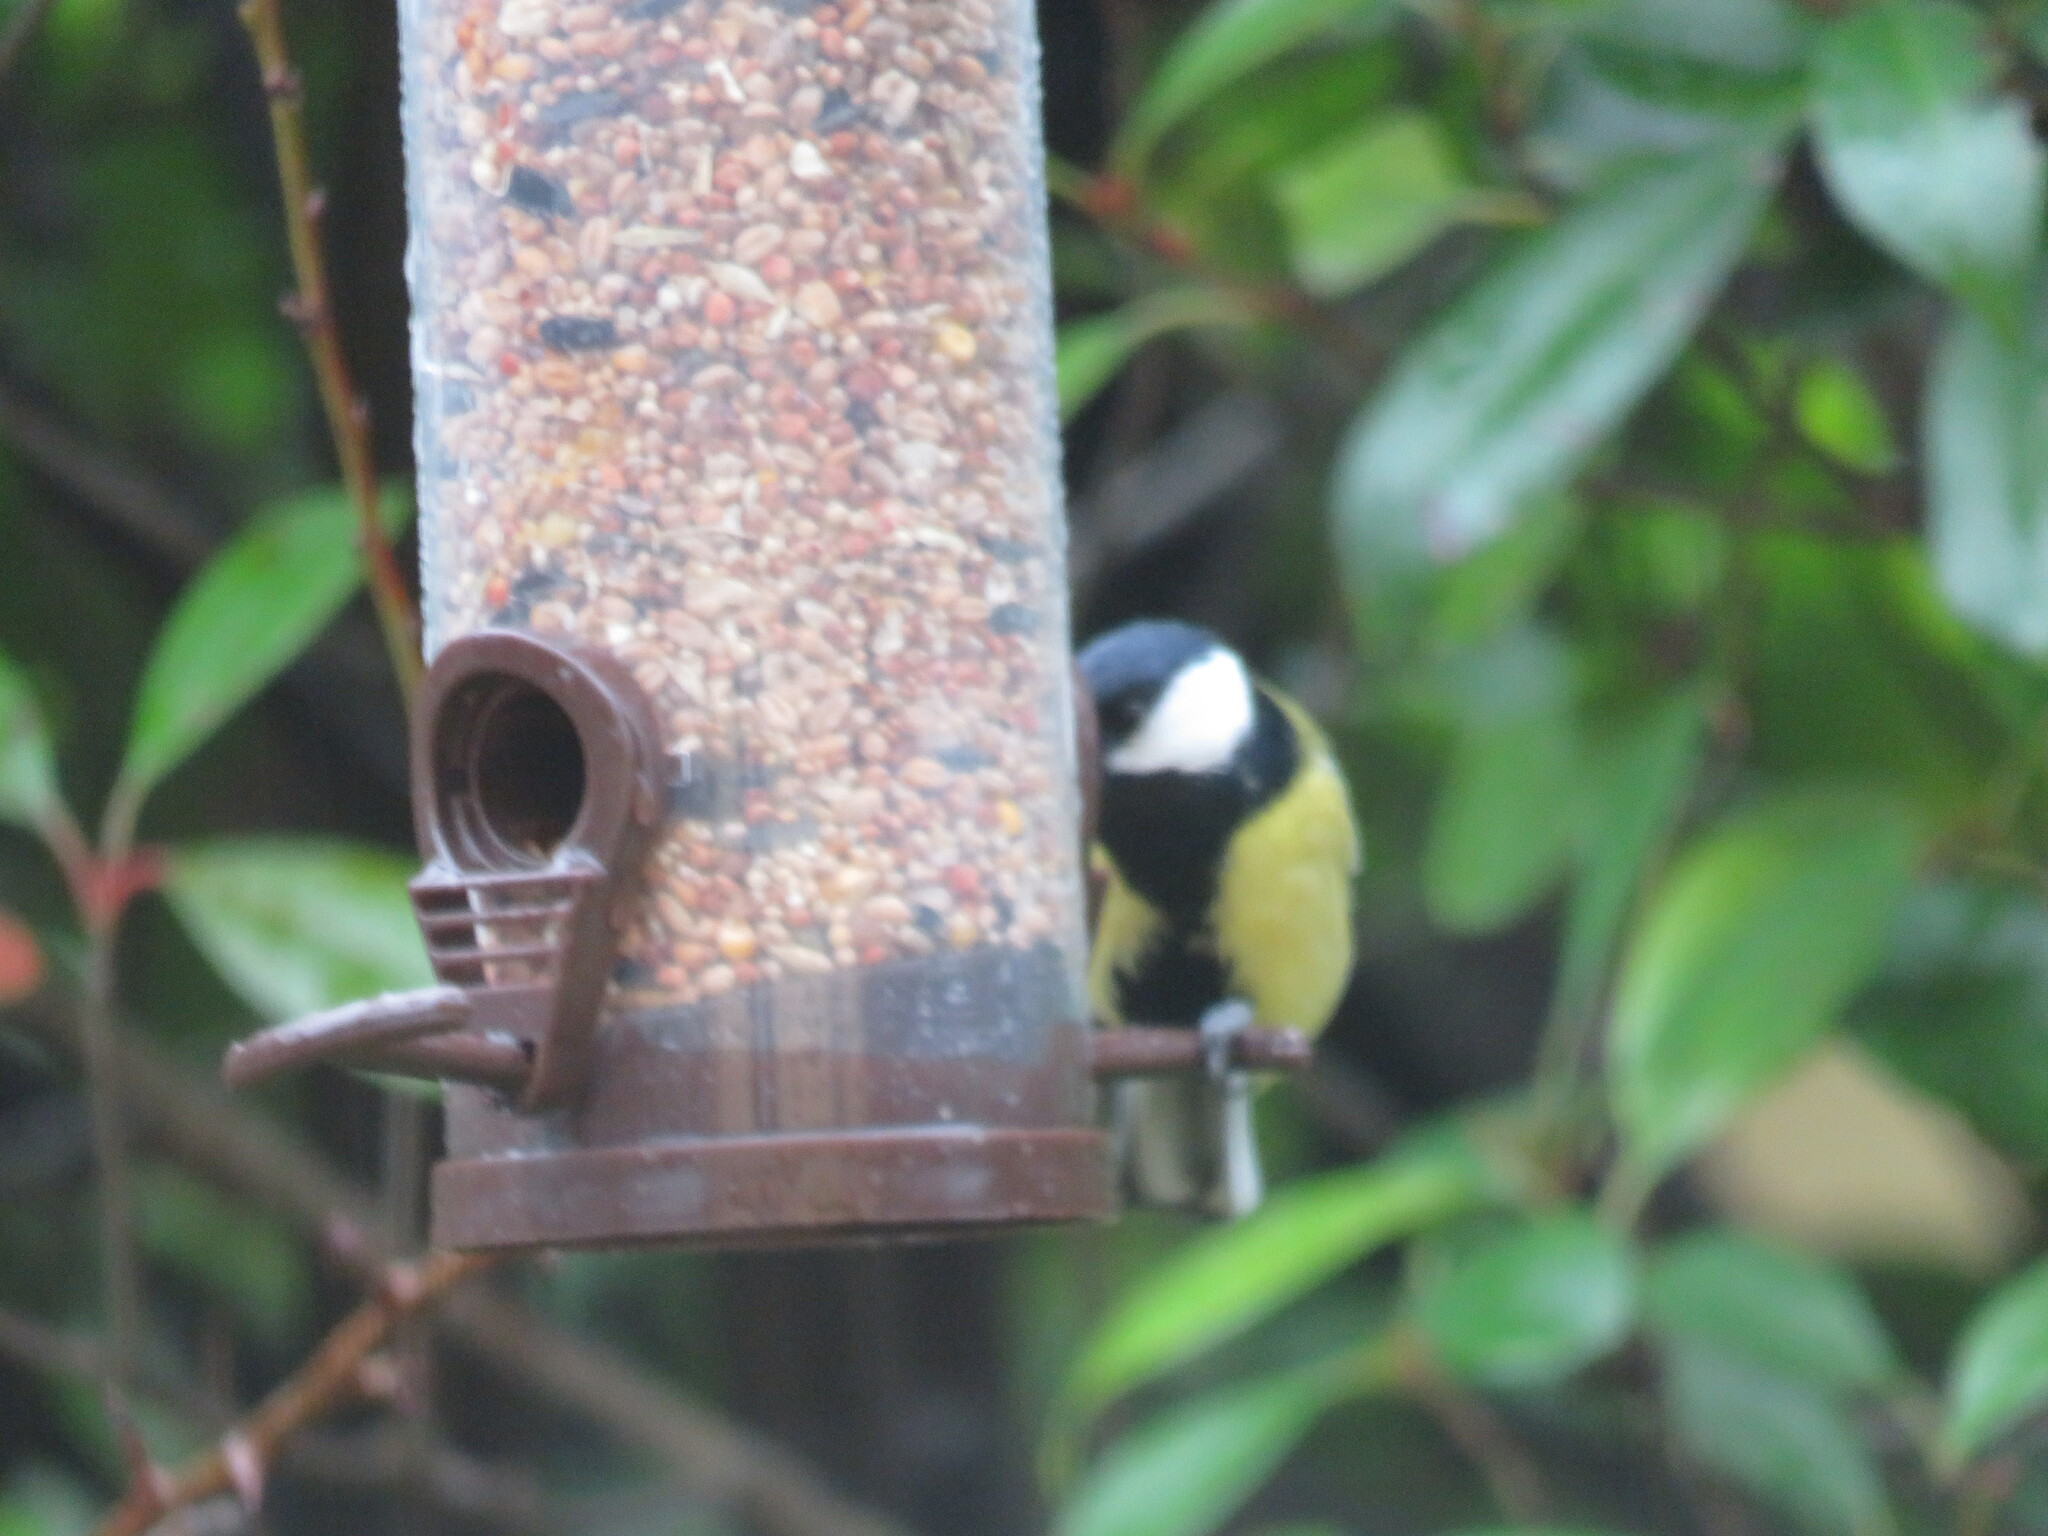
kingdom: Animalia
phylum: Chordata
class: Aves
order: Passeriformes
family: Paridae
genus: Parus
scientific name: Parus major
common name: Great tit
